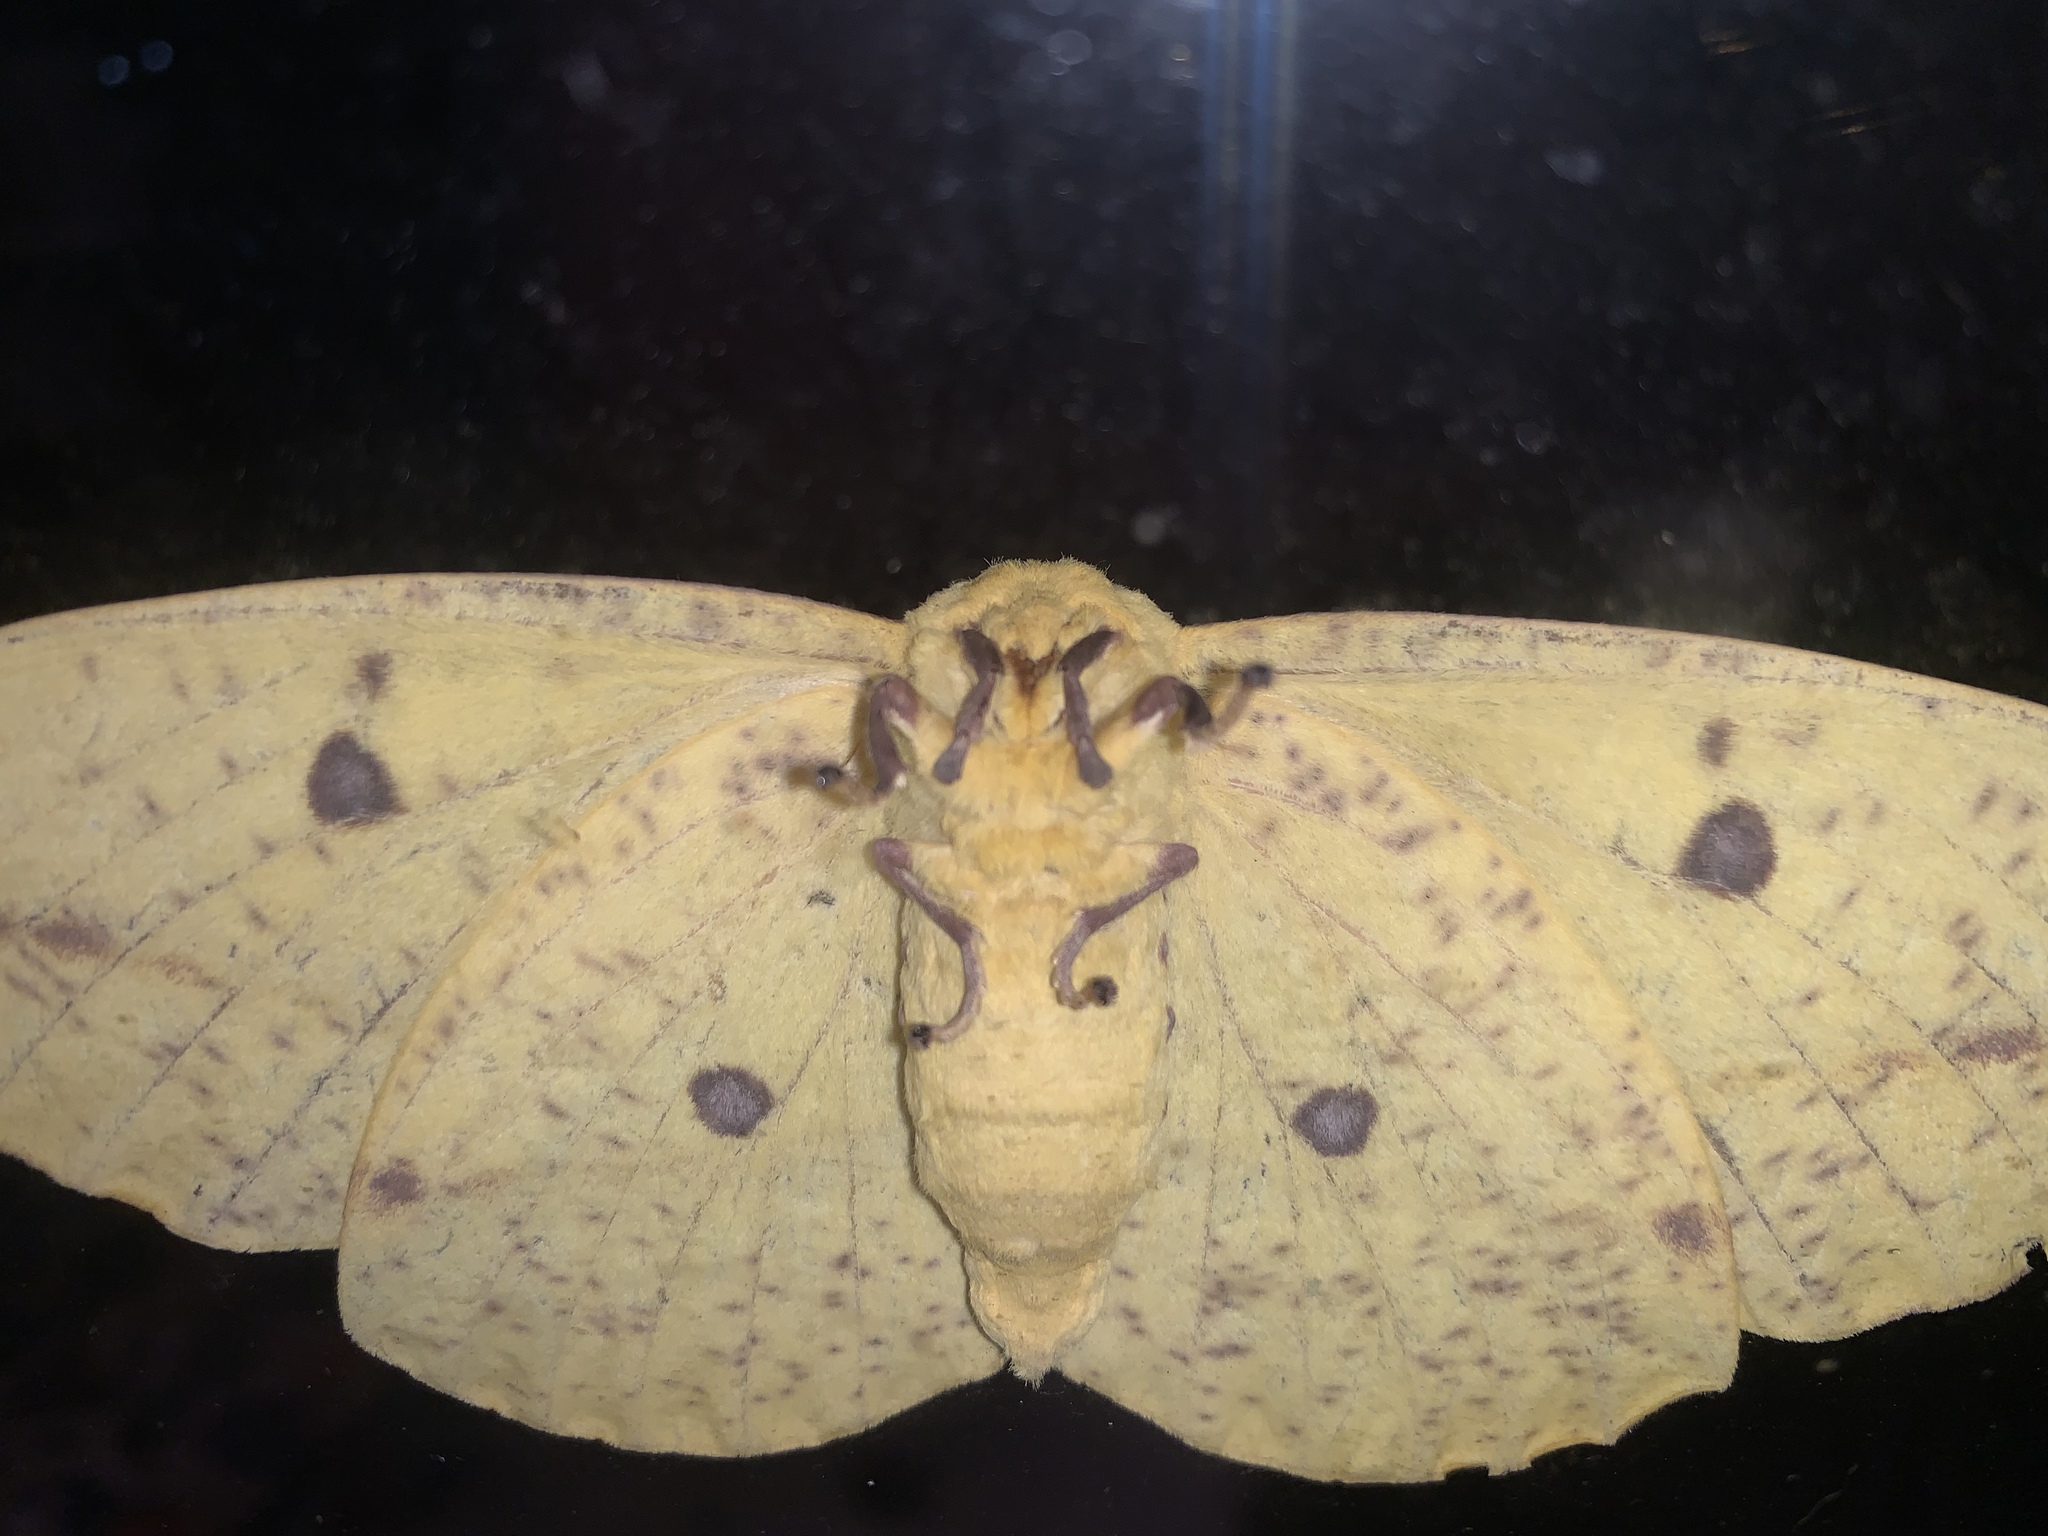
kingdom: Animalia
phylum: Arthropoda
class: Insecta
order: Lepidoptera
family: Saturniidae
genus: Eacles
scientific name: Eacles imperialis
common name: Imperial moth
